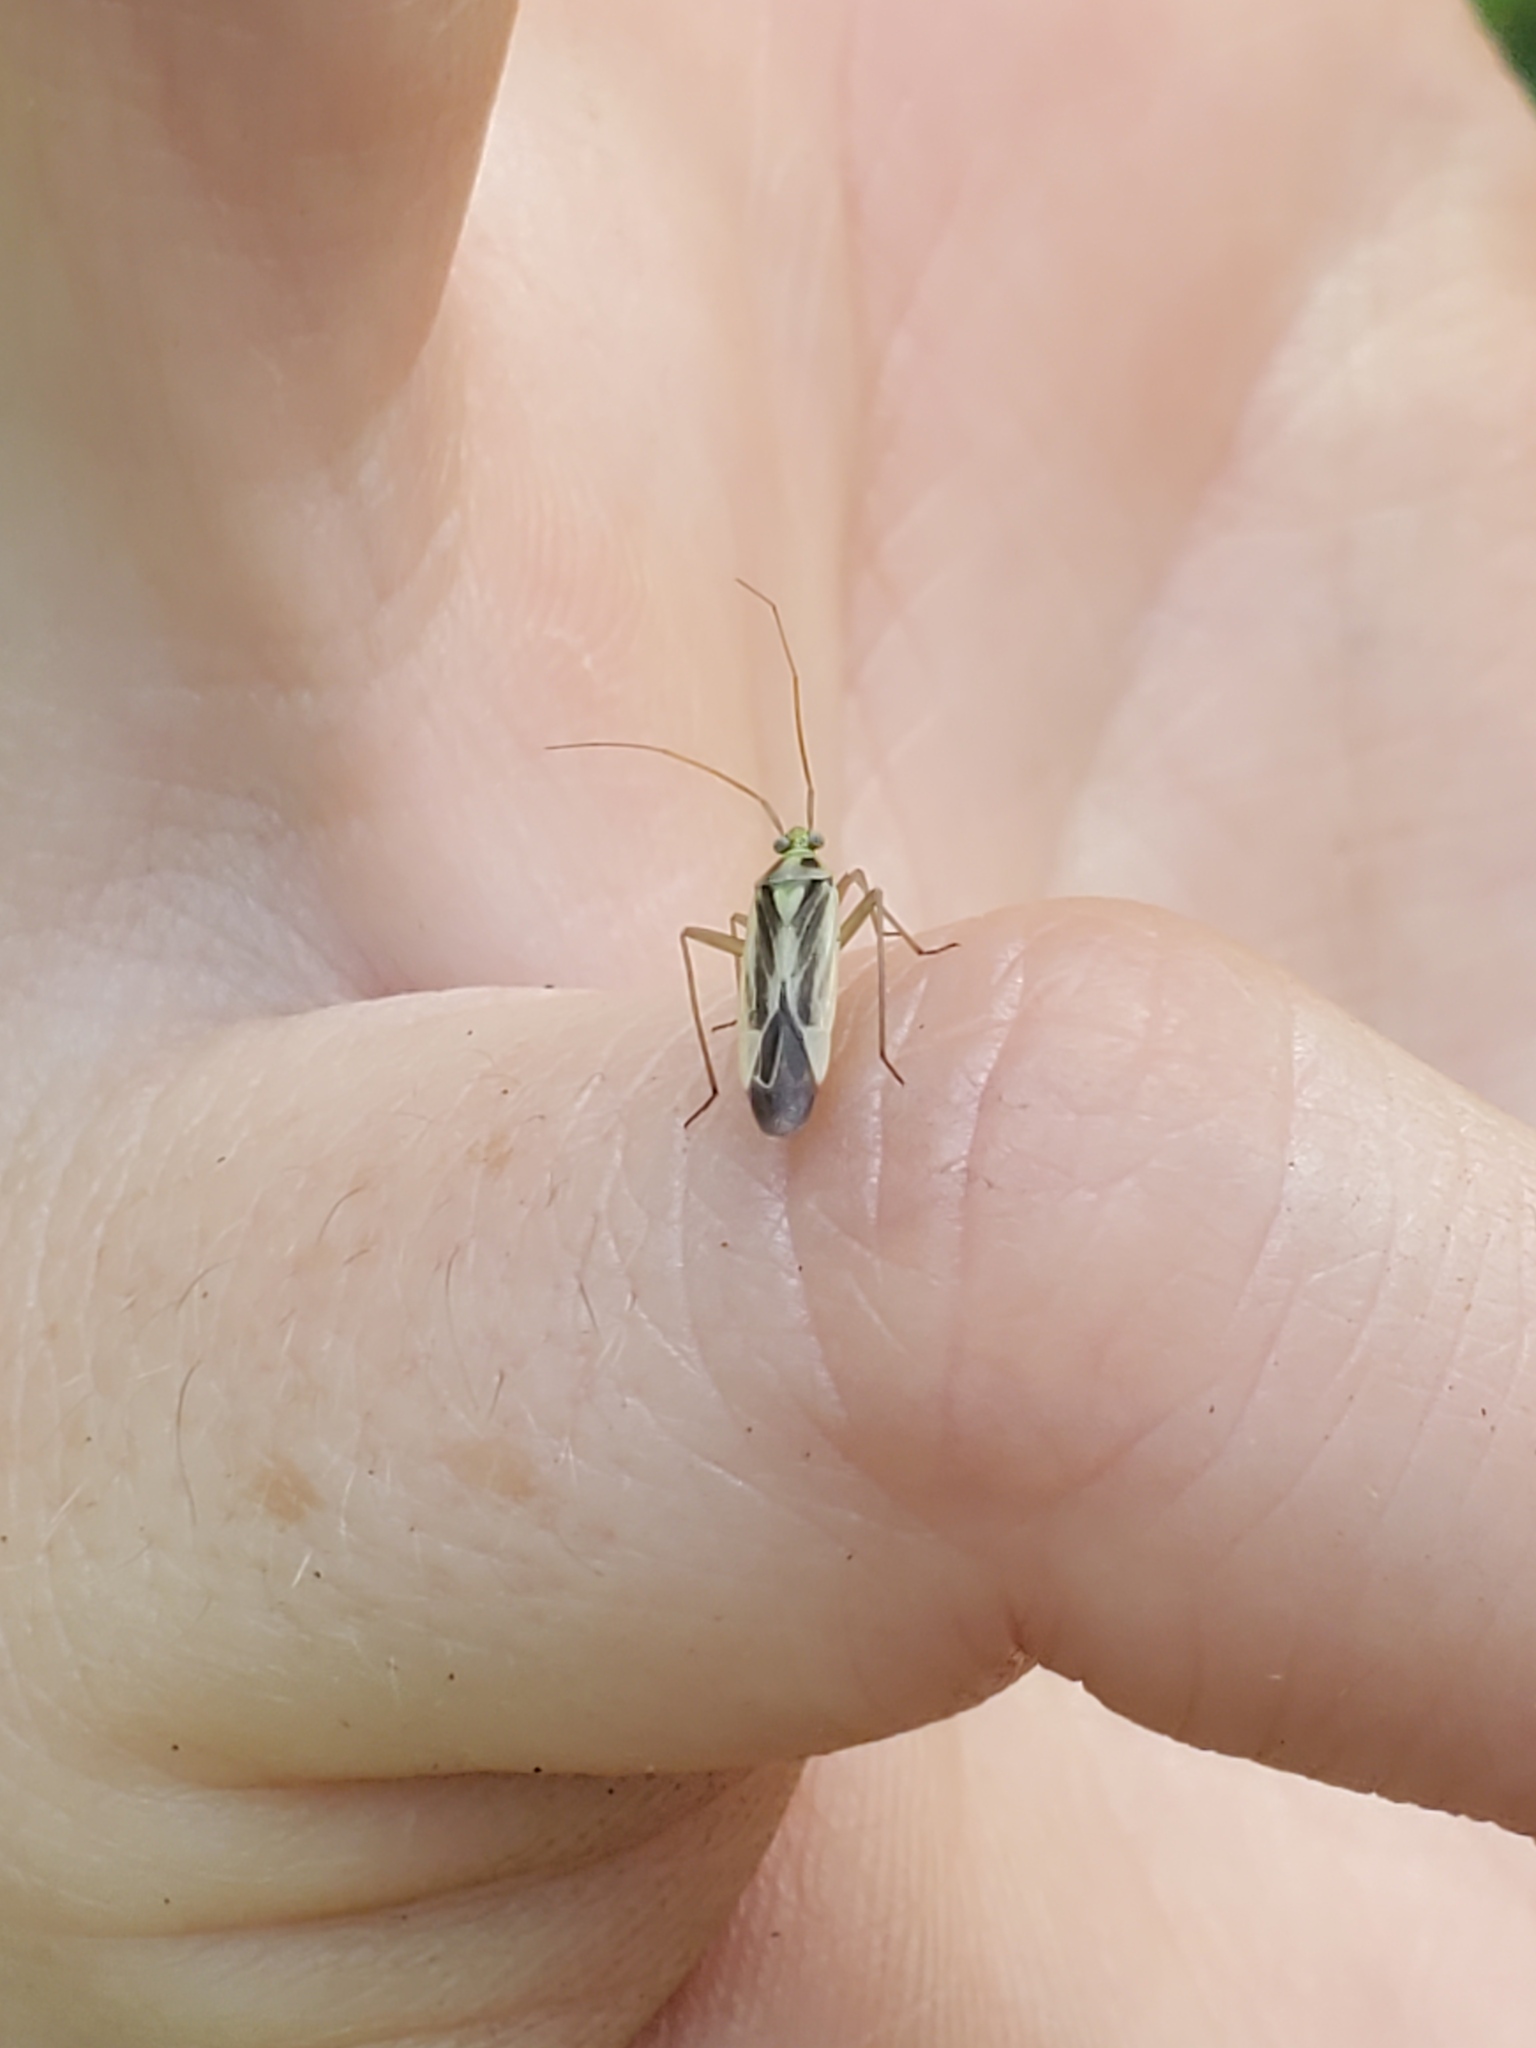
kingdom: Animalia
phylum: Arthropoda
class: Insecta
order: Hemiptera
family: Miridae
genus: Stenotus
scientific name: Stenotus binotatus
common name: Plant bug
